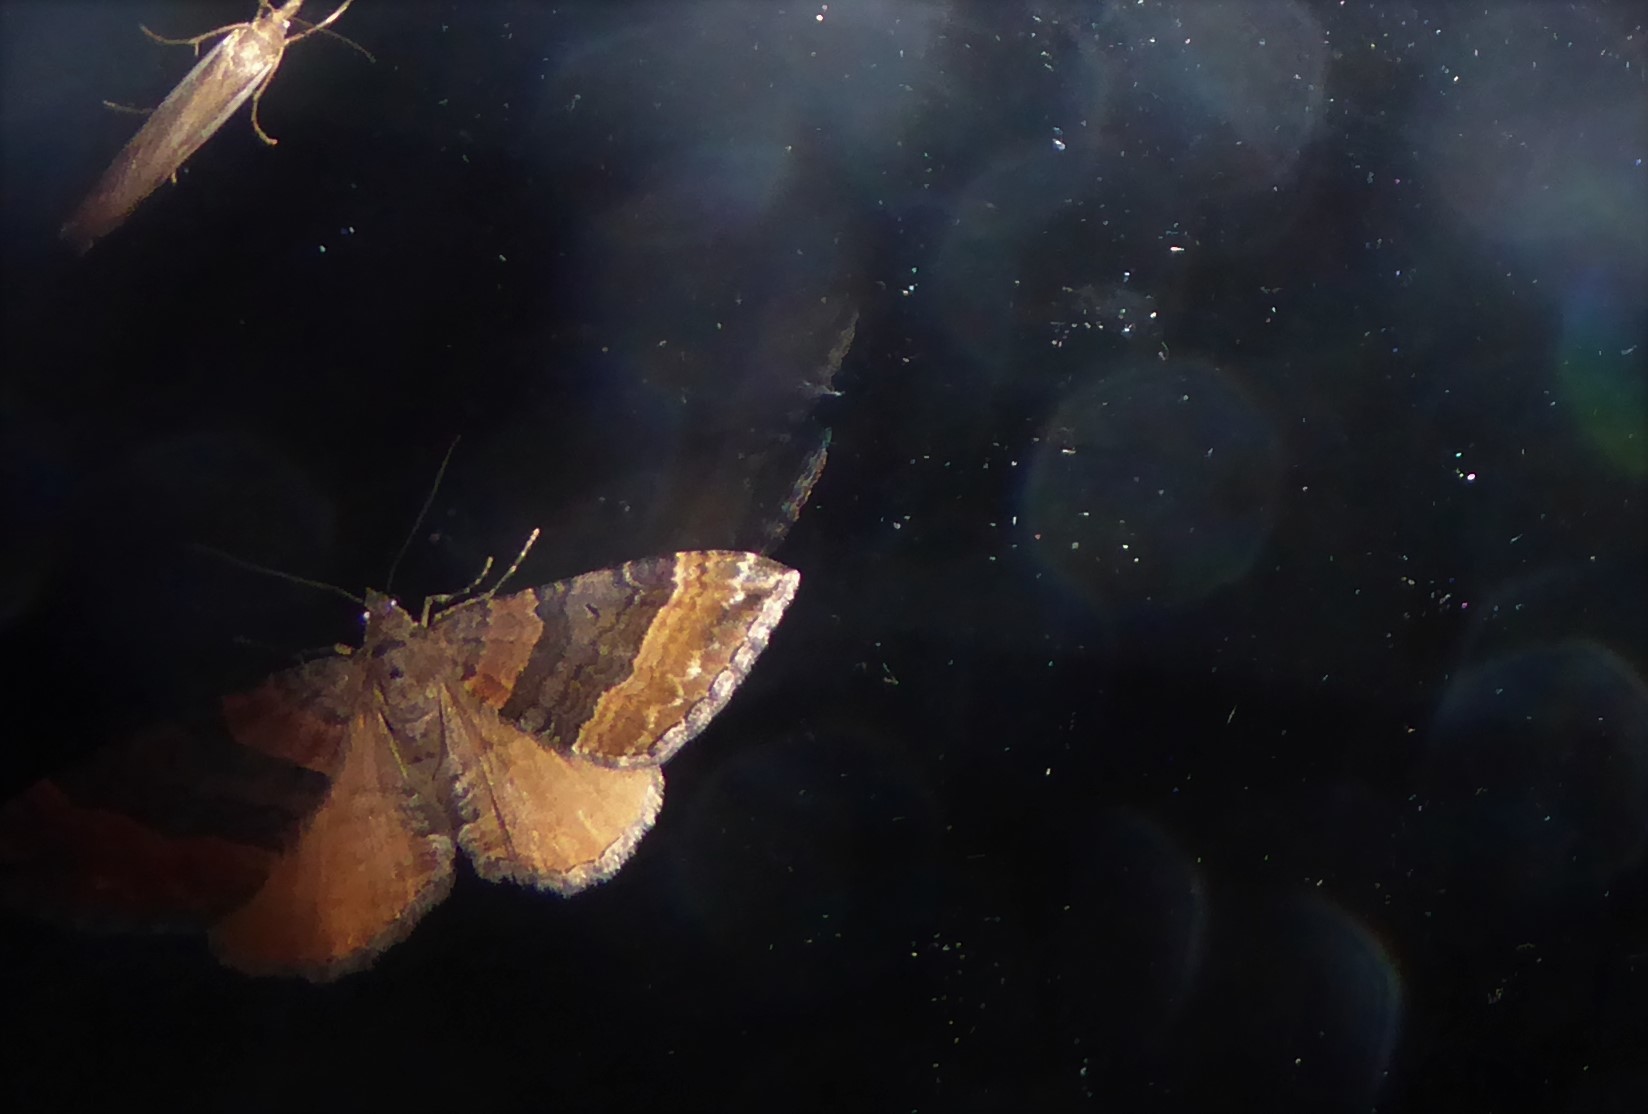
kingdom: Animalia
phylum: Arthropoda
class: Insecta
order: Lepidoptera
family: Geometridae
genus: Hydriomena
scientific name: Hydriomena deltoidata
